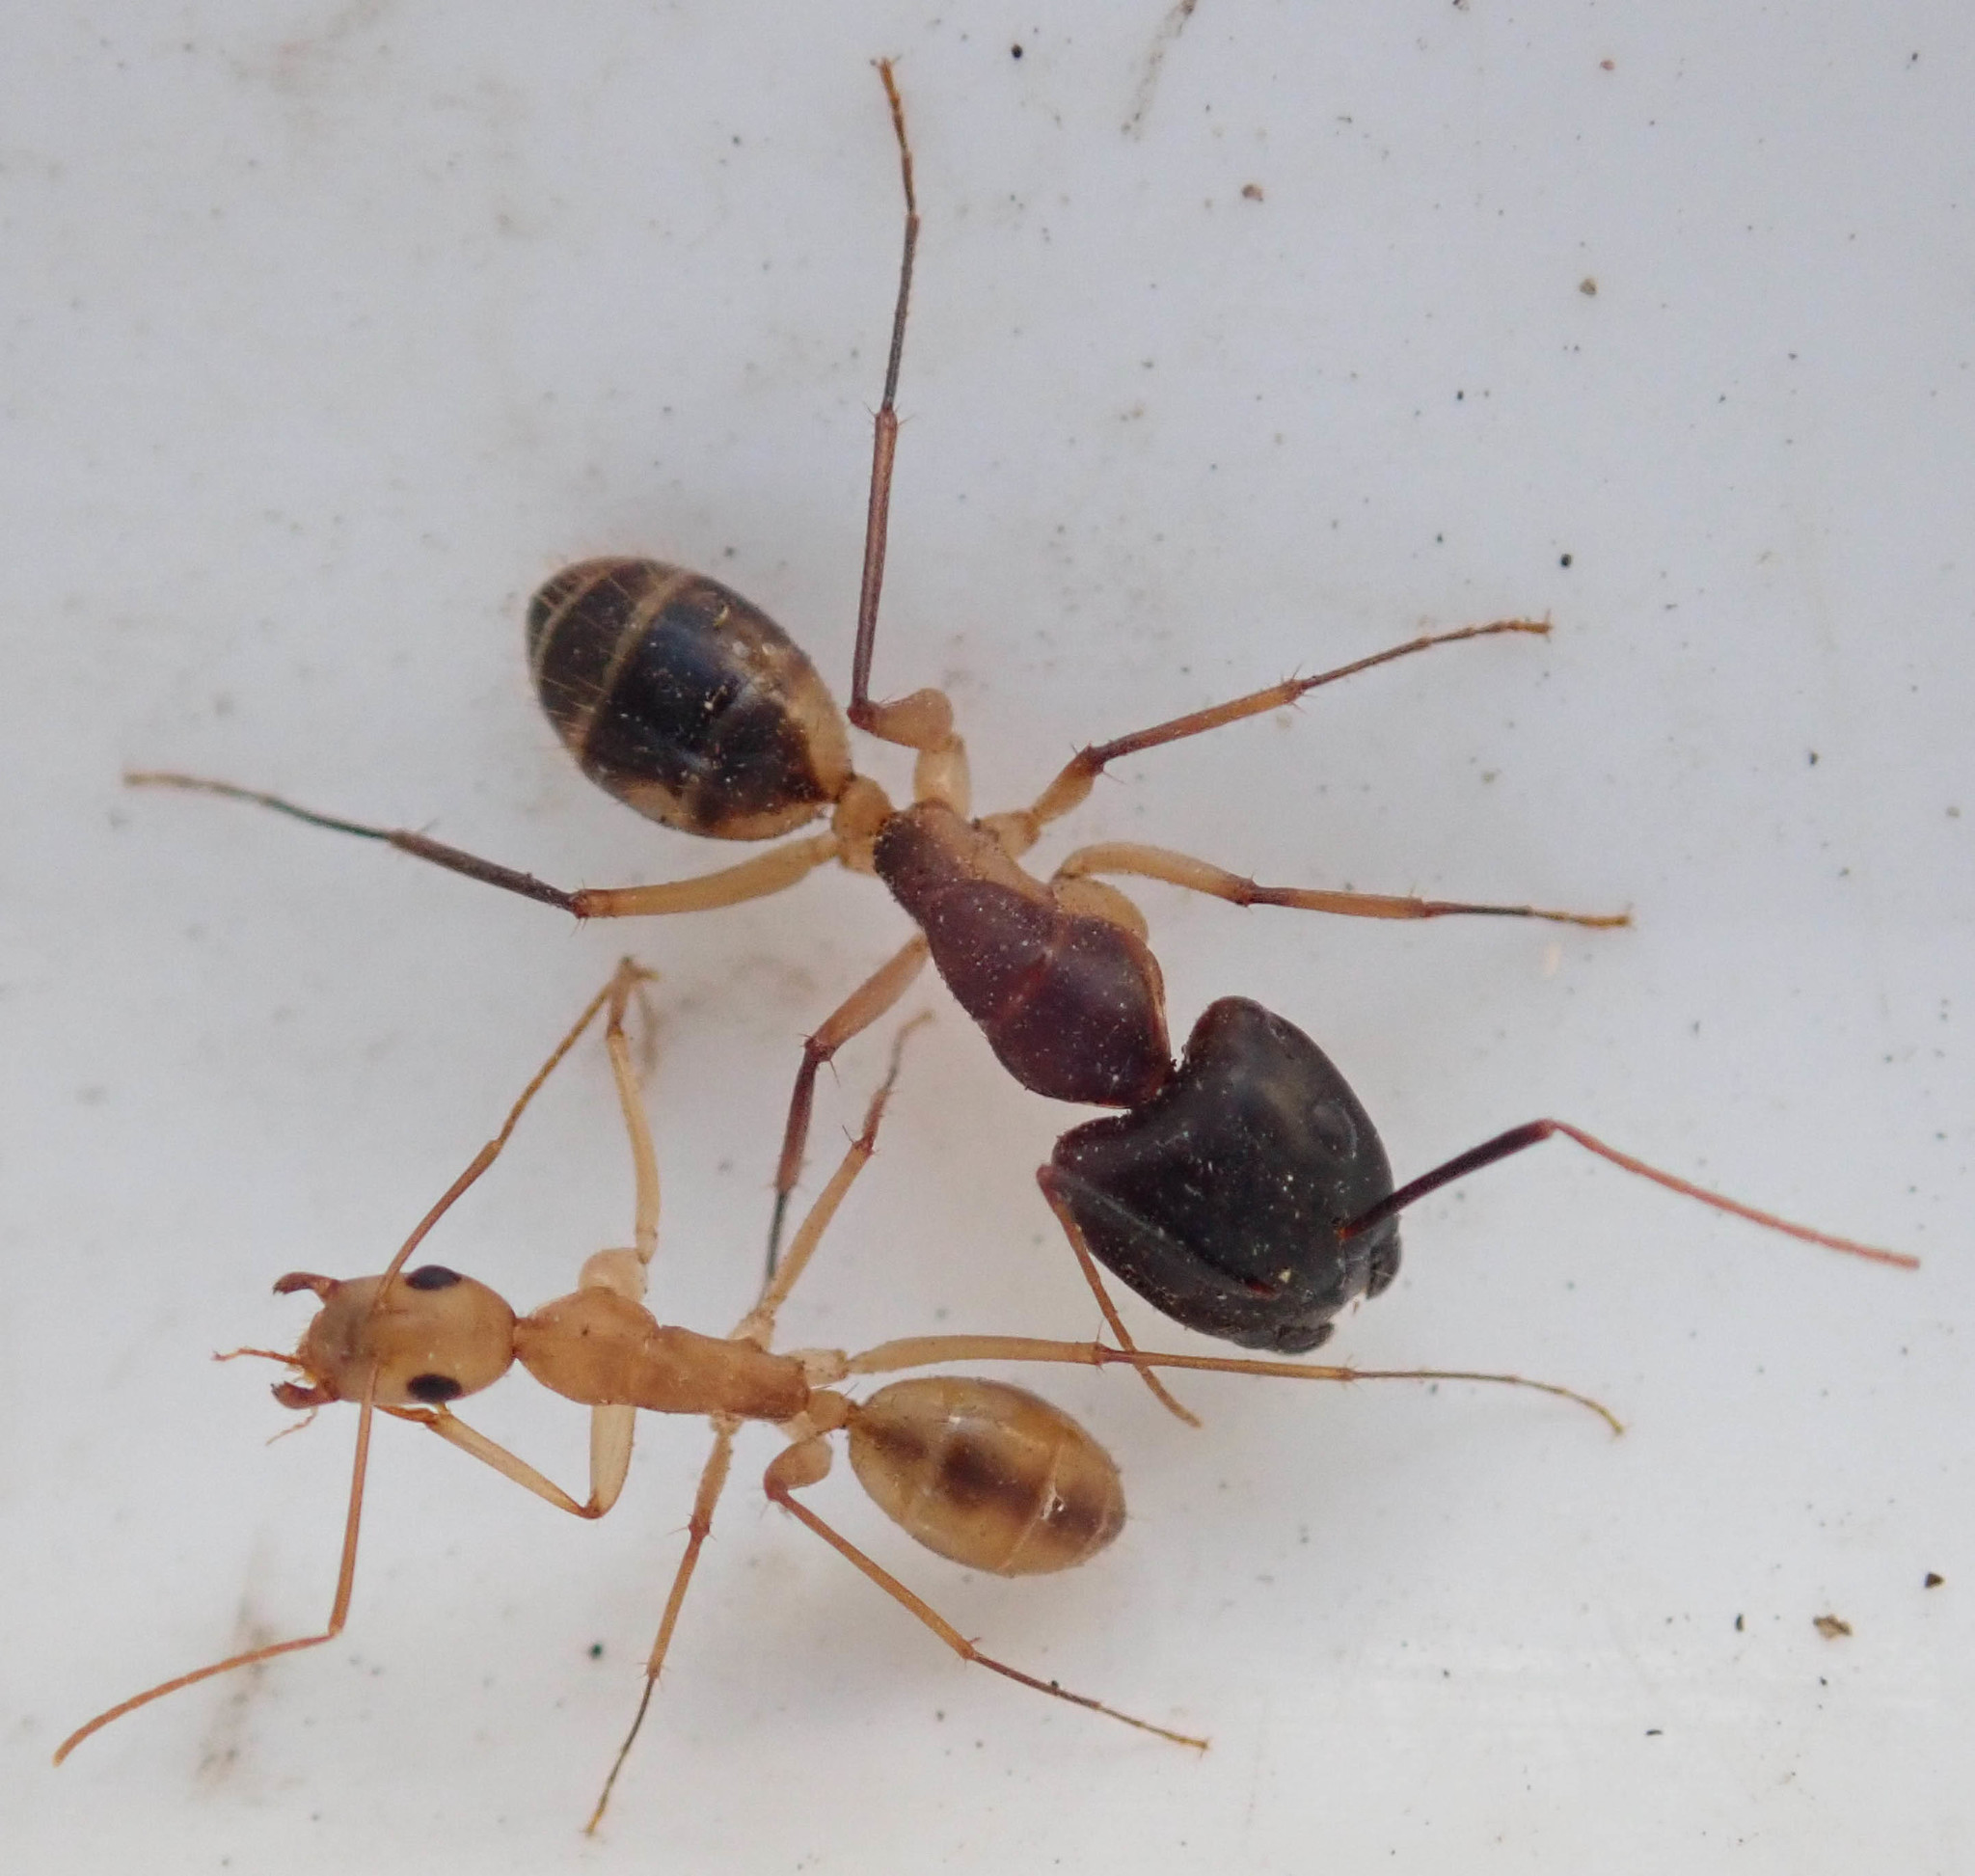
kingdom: Animalia
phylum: Arthropoda
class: Insecta
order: Hymenoptera
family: Formicidae
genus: Camponotus
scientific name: Camponotus maculatus
